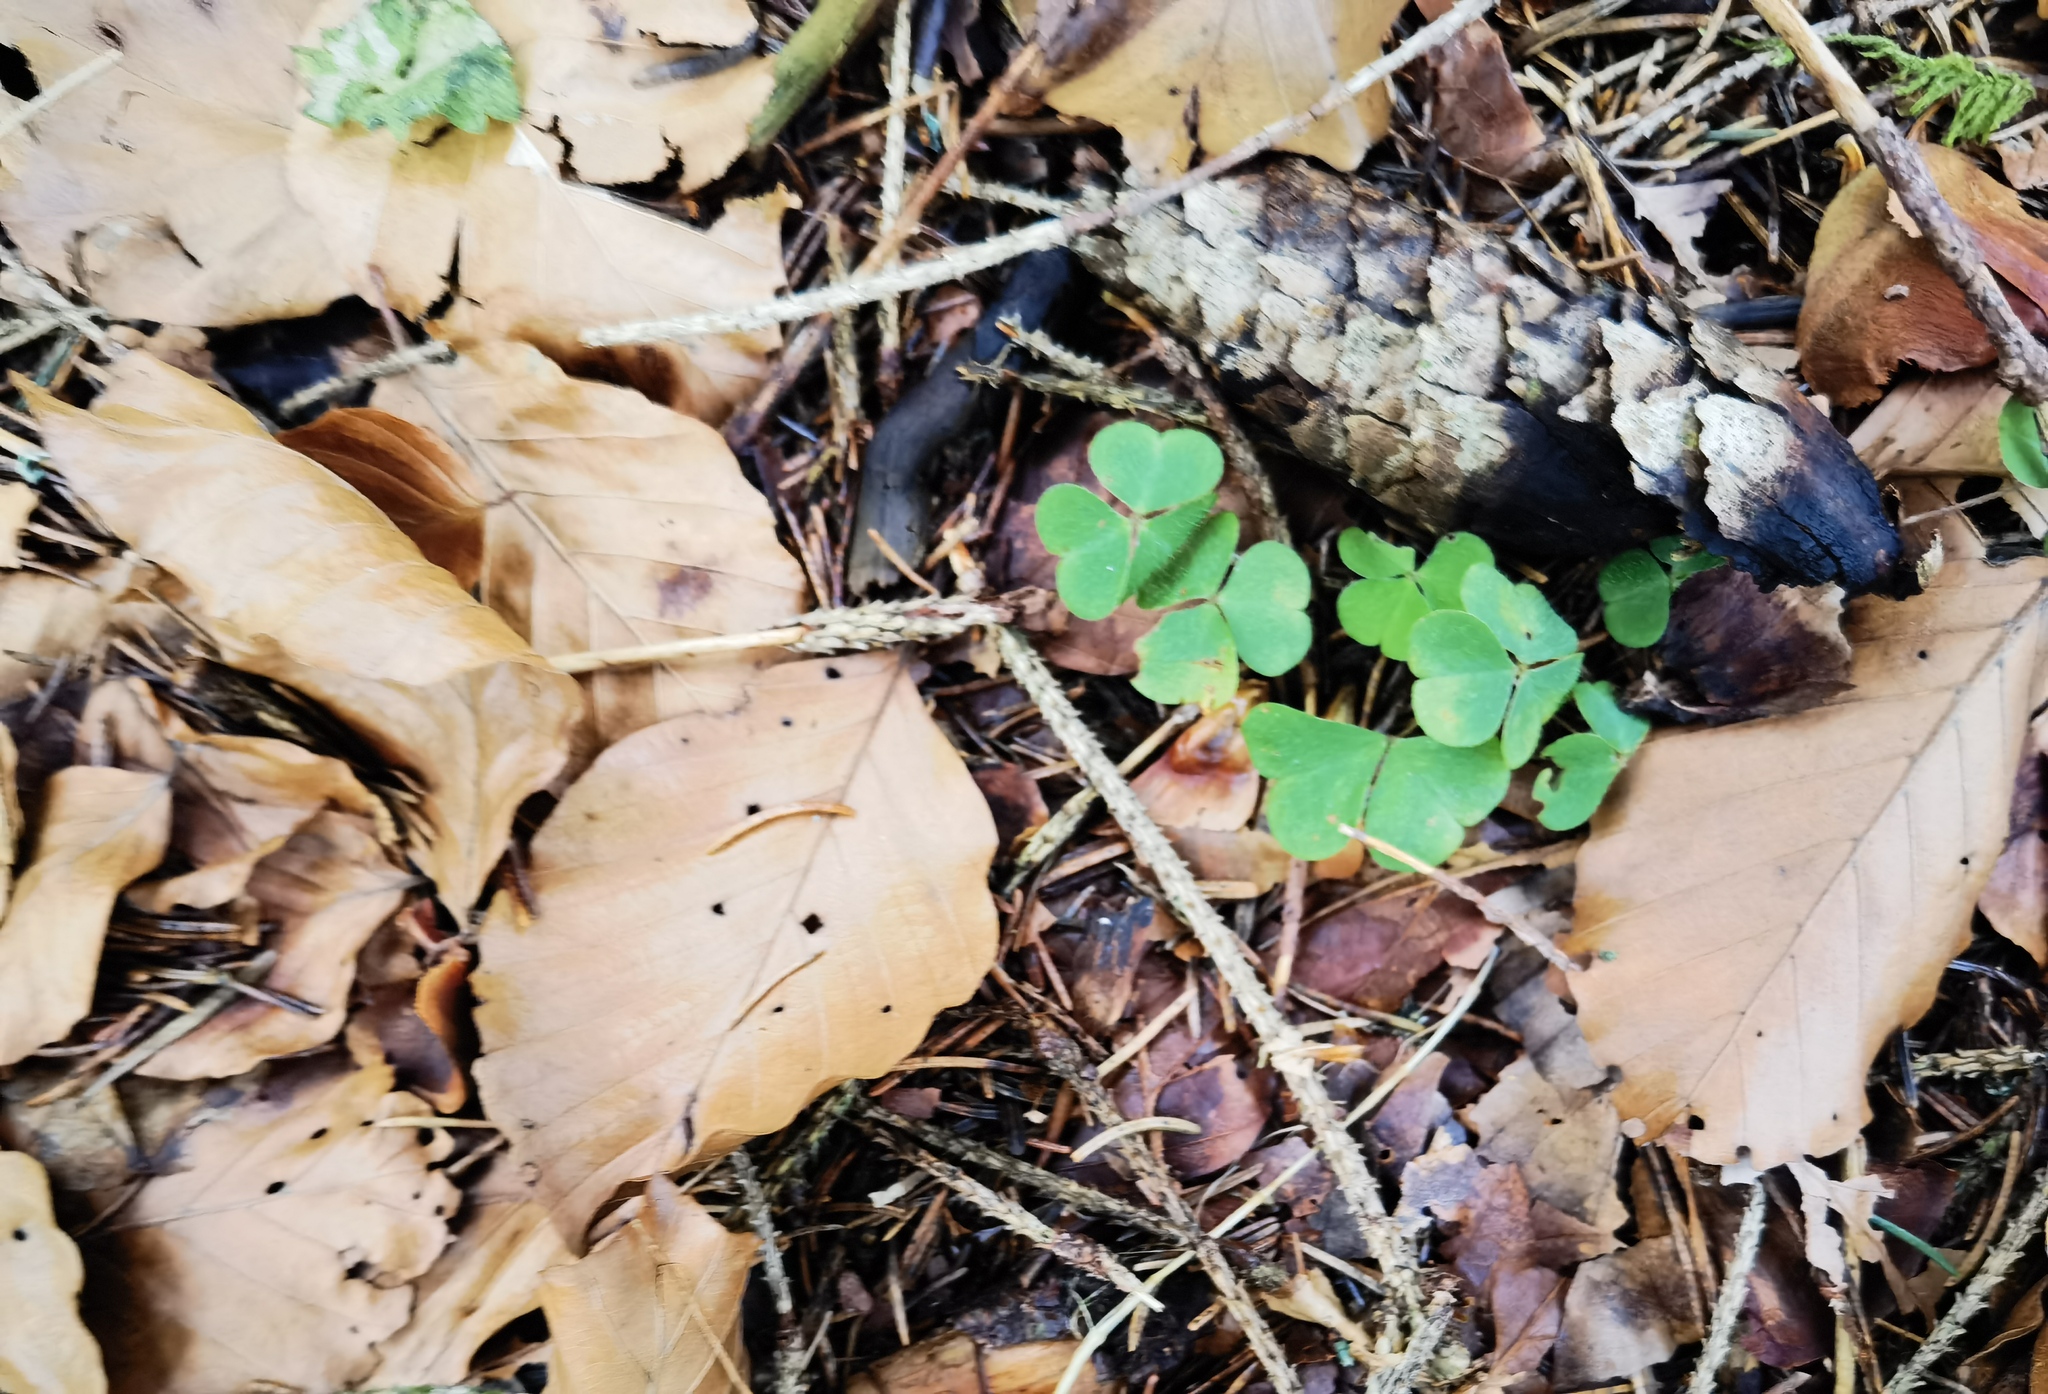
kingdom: Plantae
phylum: Tracheophyta
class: Magnoliopsida
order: Oxalidales
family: Oxalidaceae
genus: Oxalis
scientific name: Oxalis acetosella
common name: Wood-sorrel
